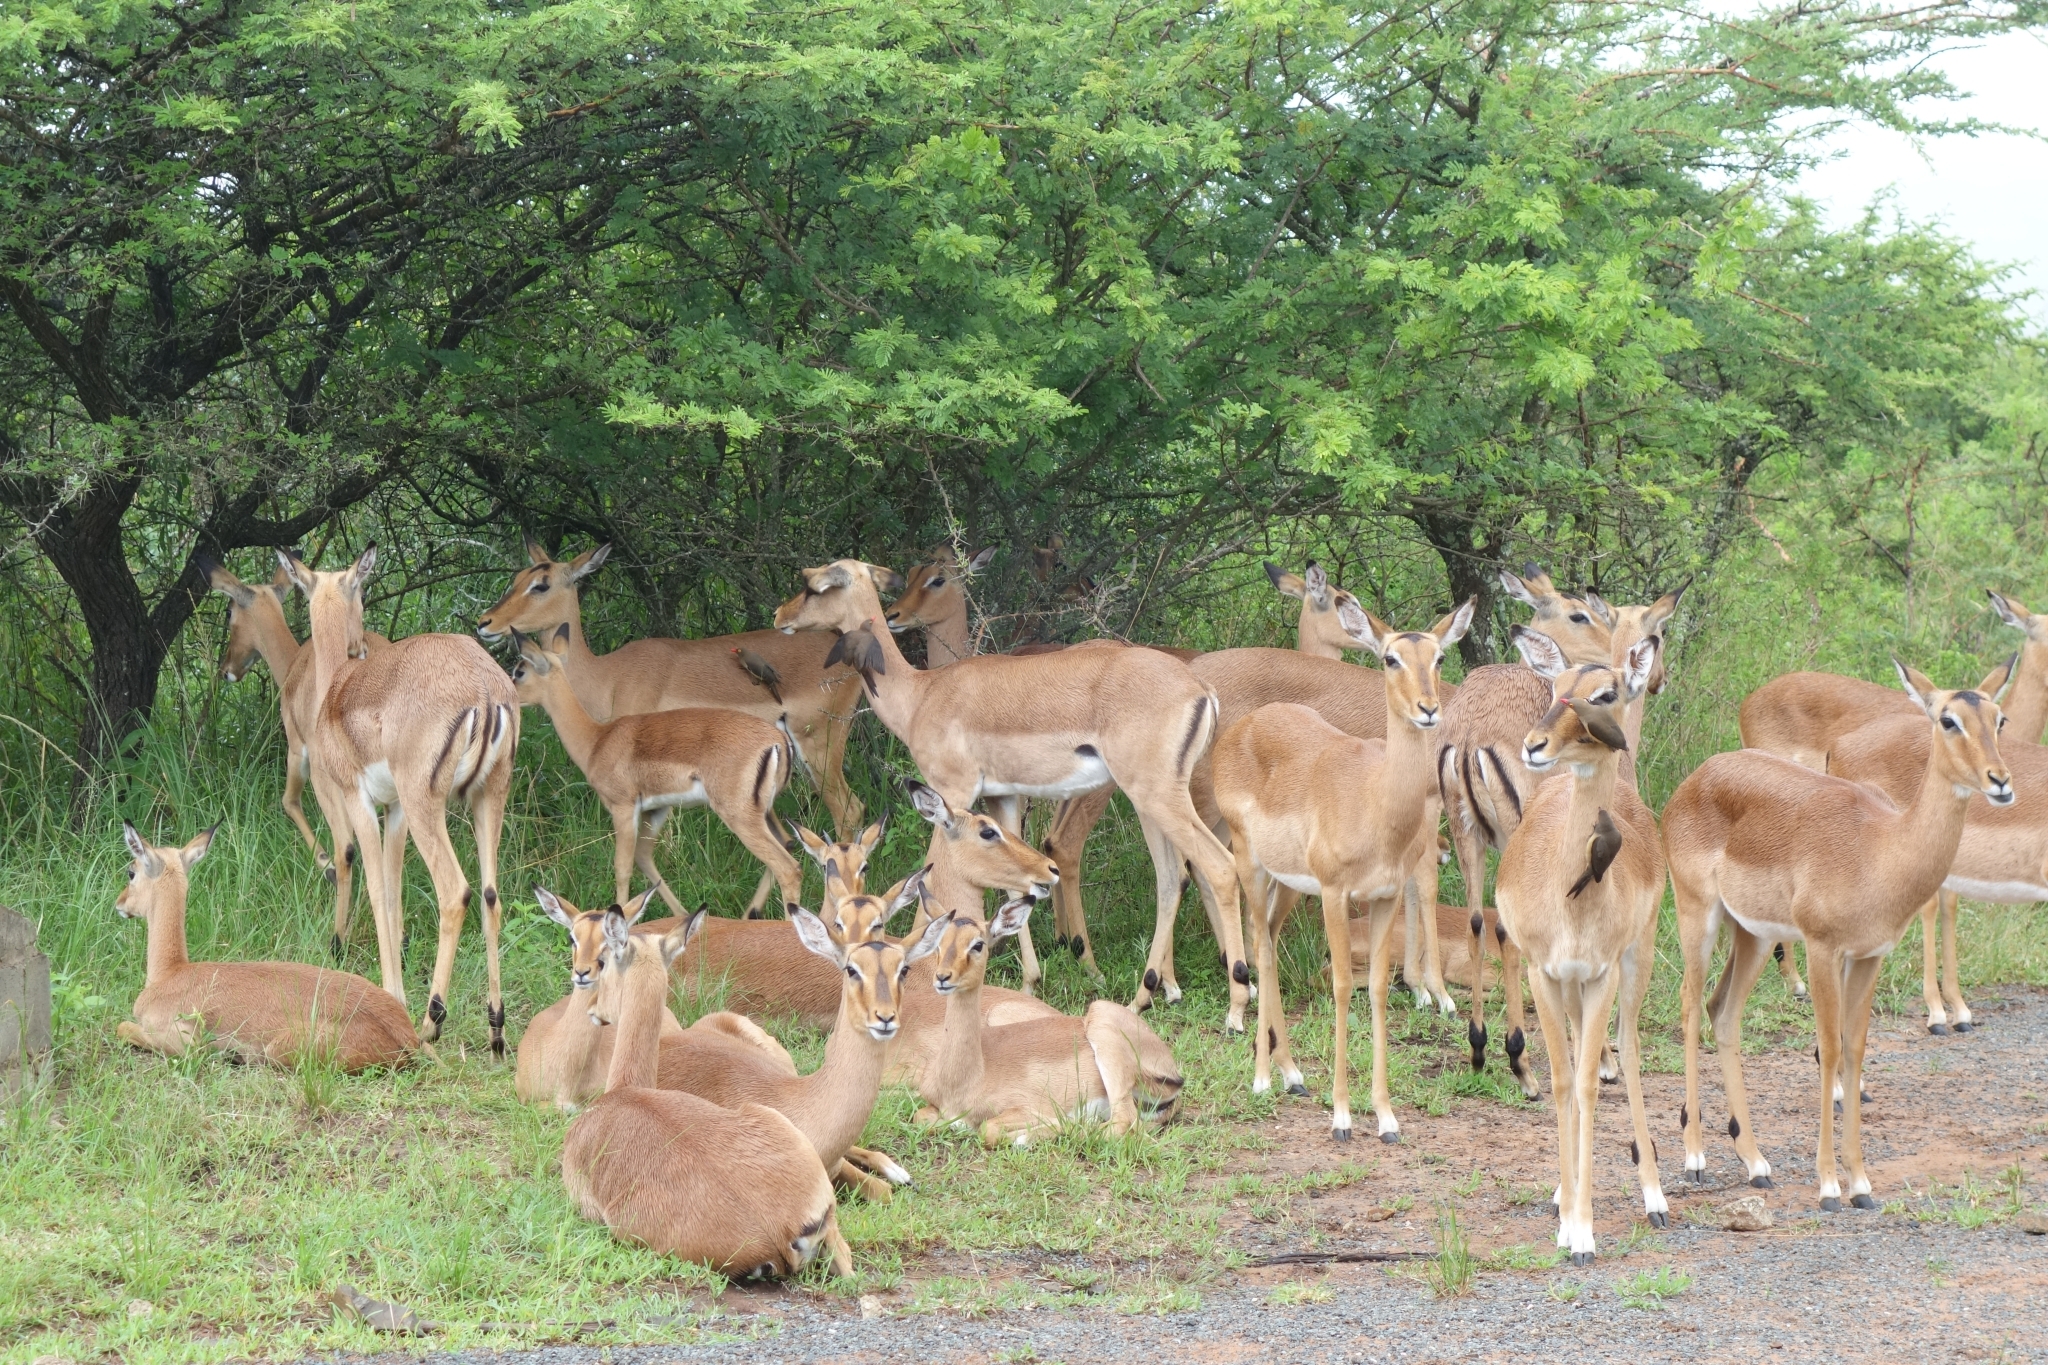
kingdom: Animalia
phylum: Chordata
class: Mammalia
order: Artiodactyla
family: Bovidae
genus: Aepyceros
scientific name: Aepyceros melampus
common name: Impala
